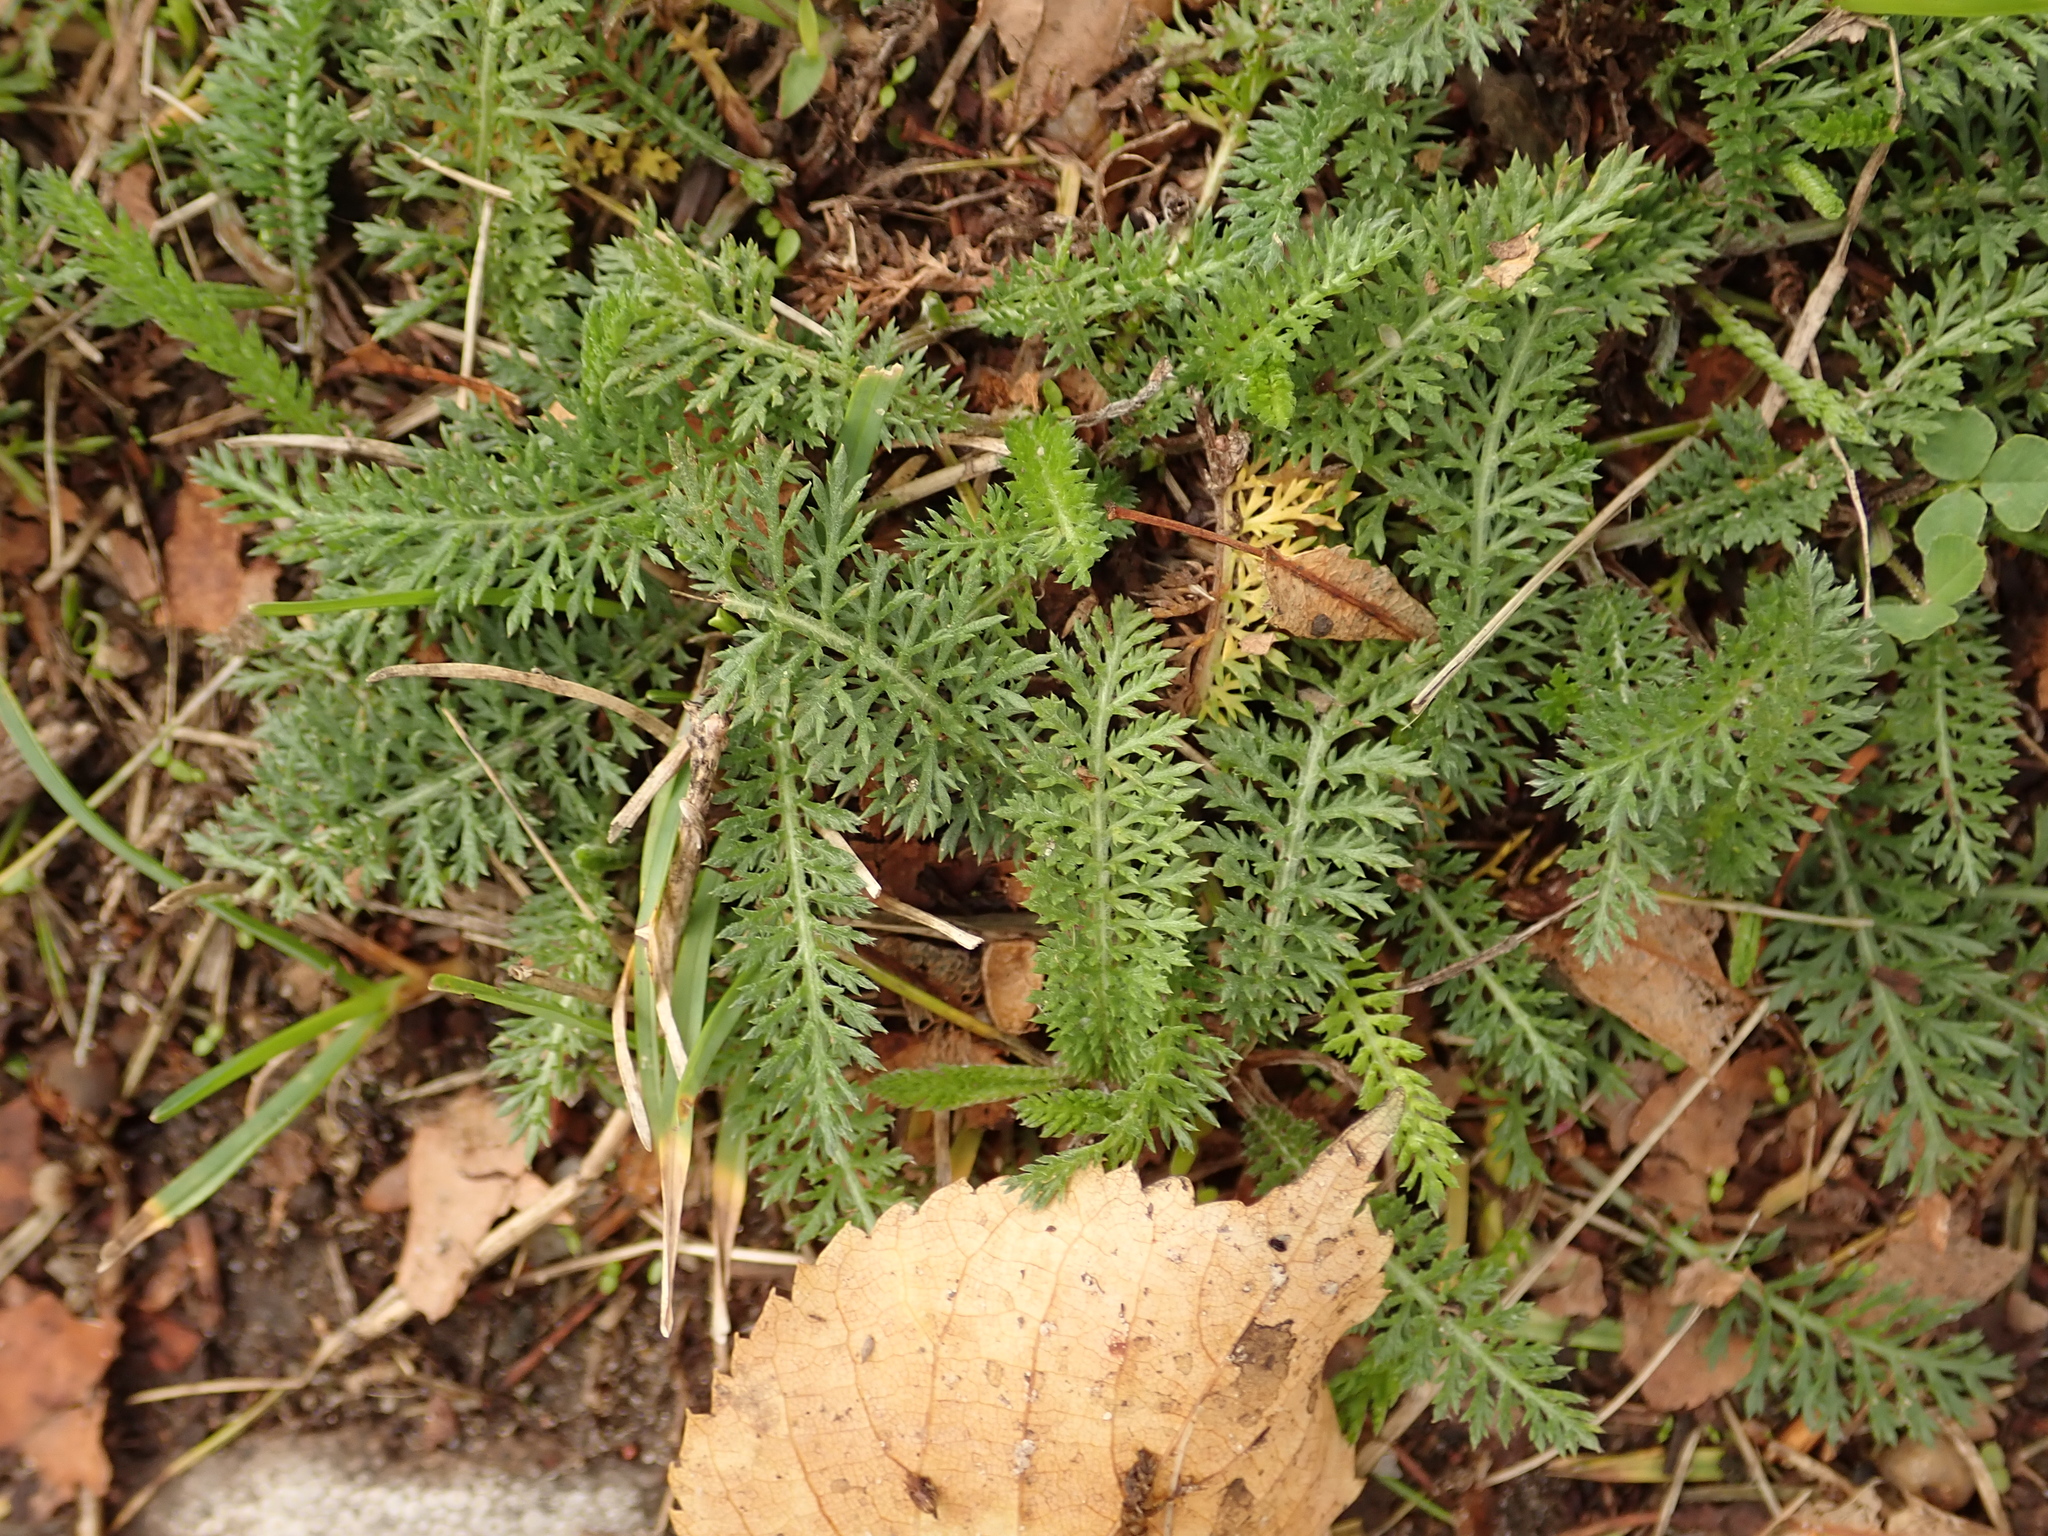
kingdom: Plantae
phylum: Tracheophyta
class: Magnoliopsida
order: Asterales
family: Asteraceae
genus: Achillea
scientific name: Achillea millefolium
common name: Yarrow
